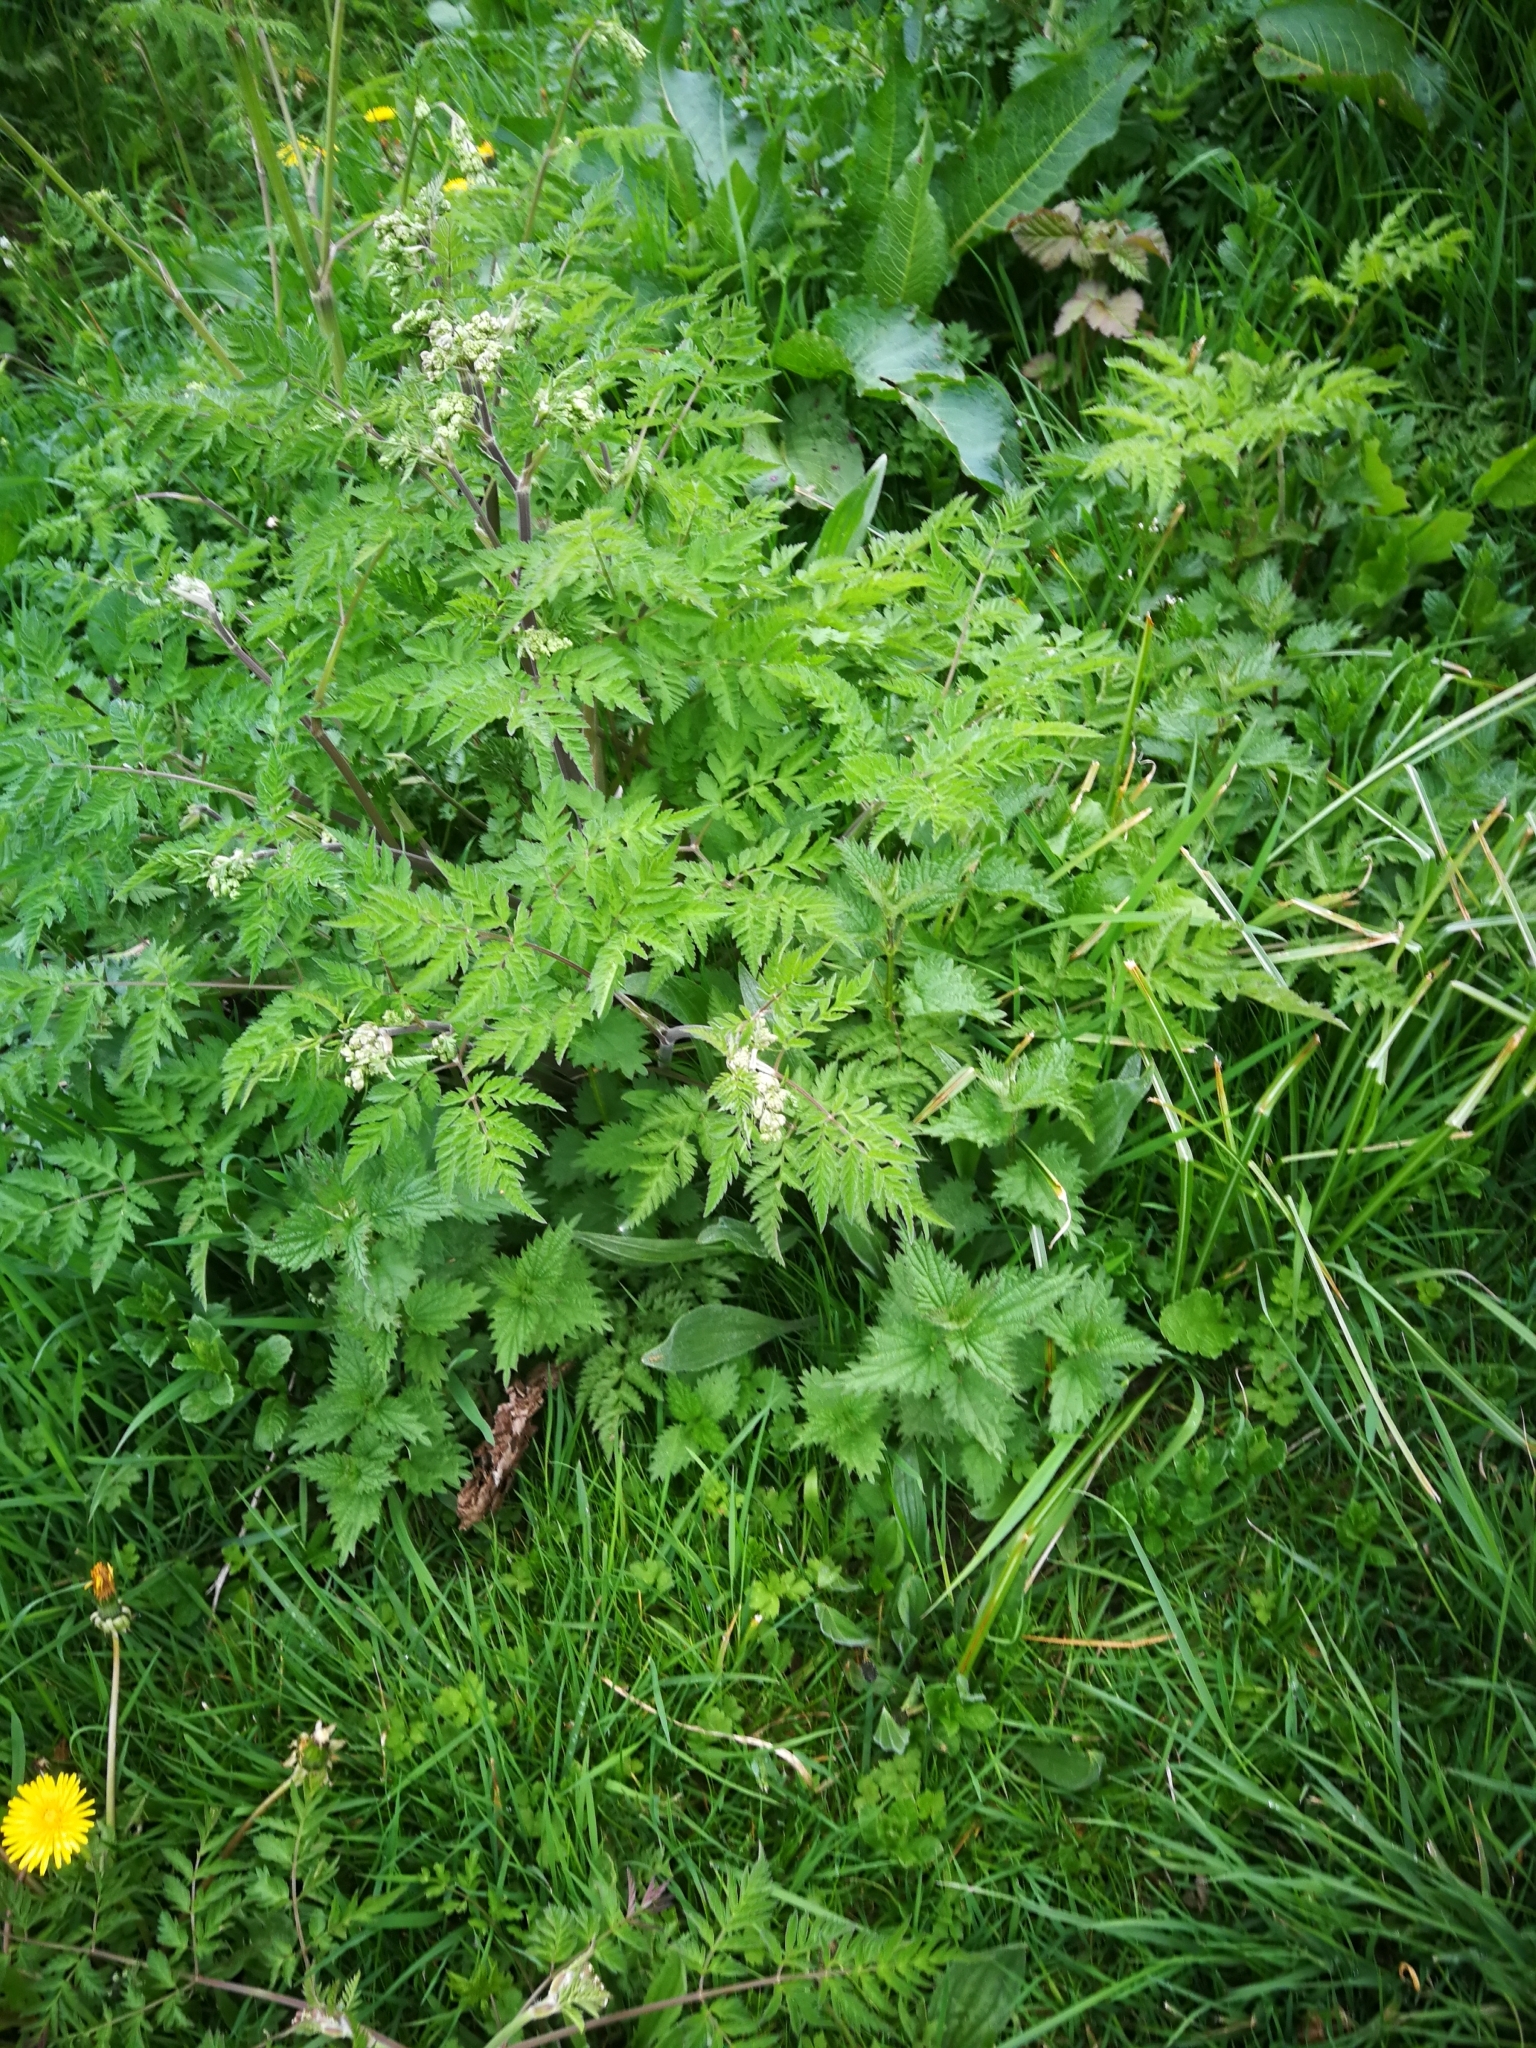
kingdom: Plantae
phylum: Tracheophyta
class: Magnoliopsida
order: Apiales
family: Apiaceae
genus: Anthriscus
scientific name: Anthriscus sylvestris
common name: Cow parsley
